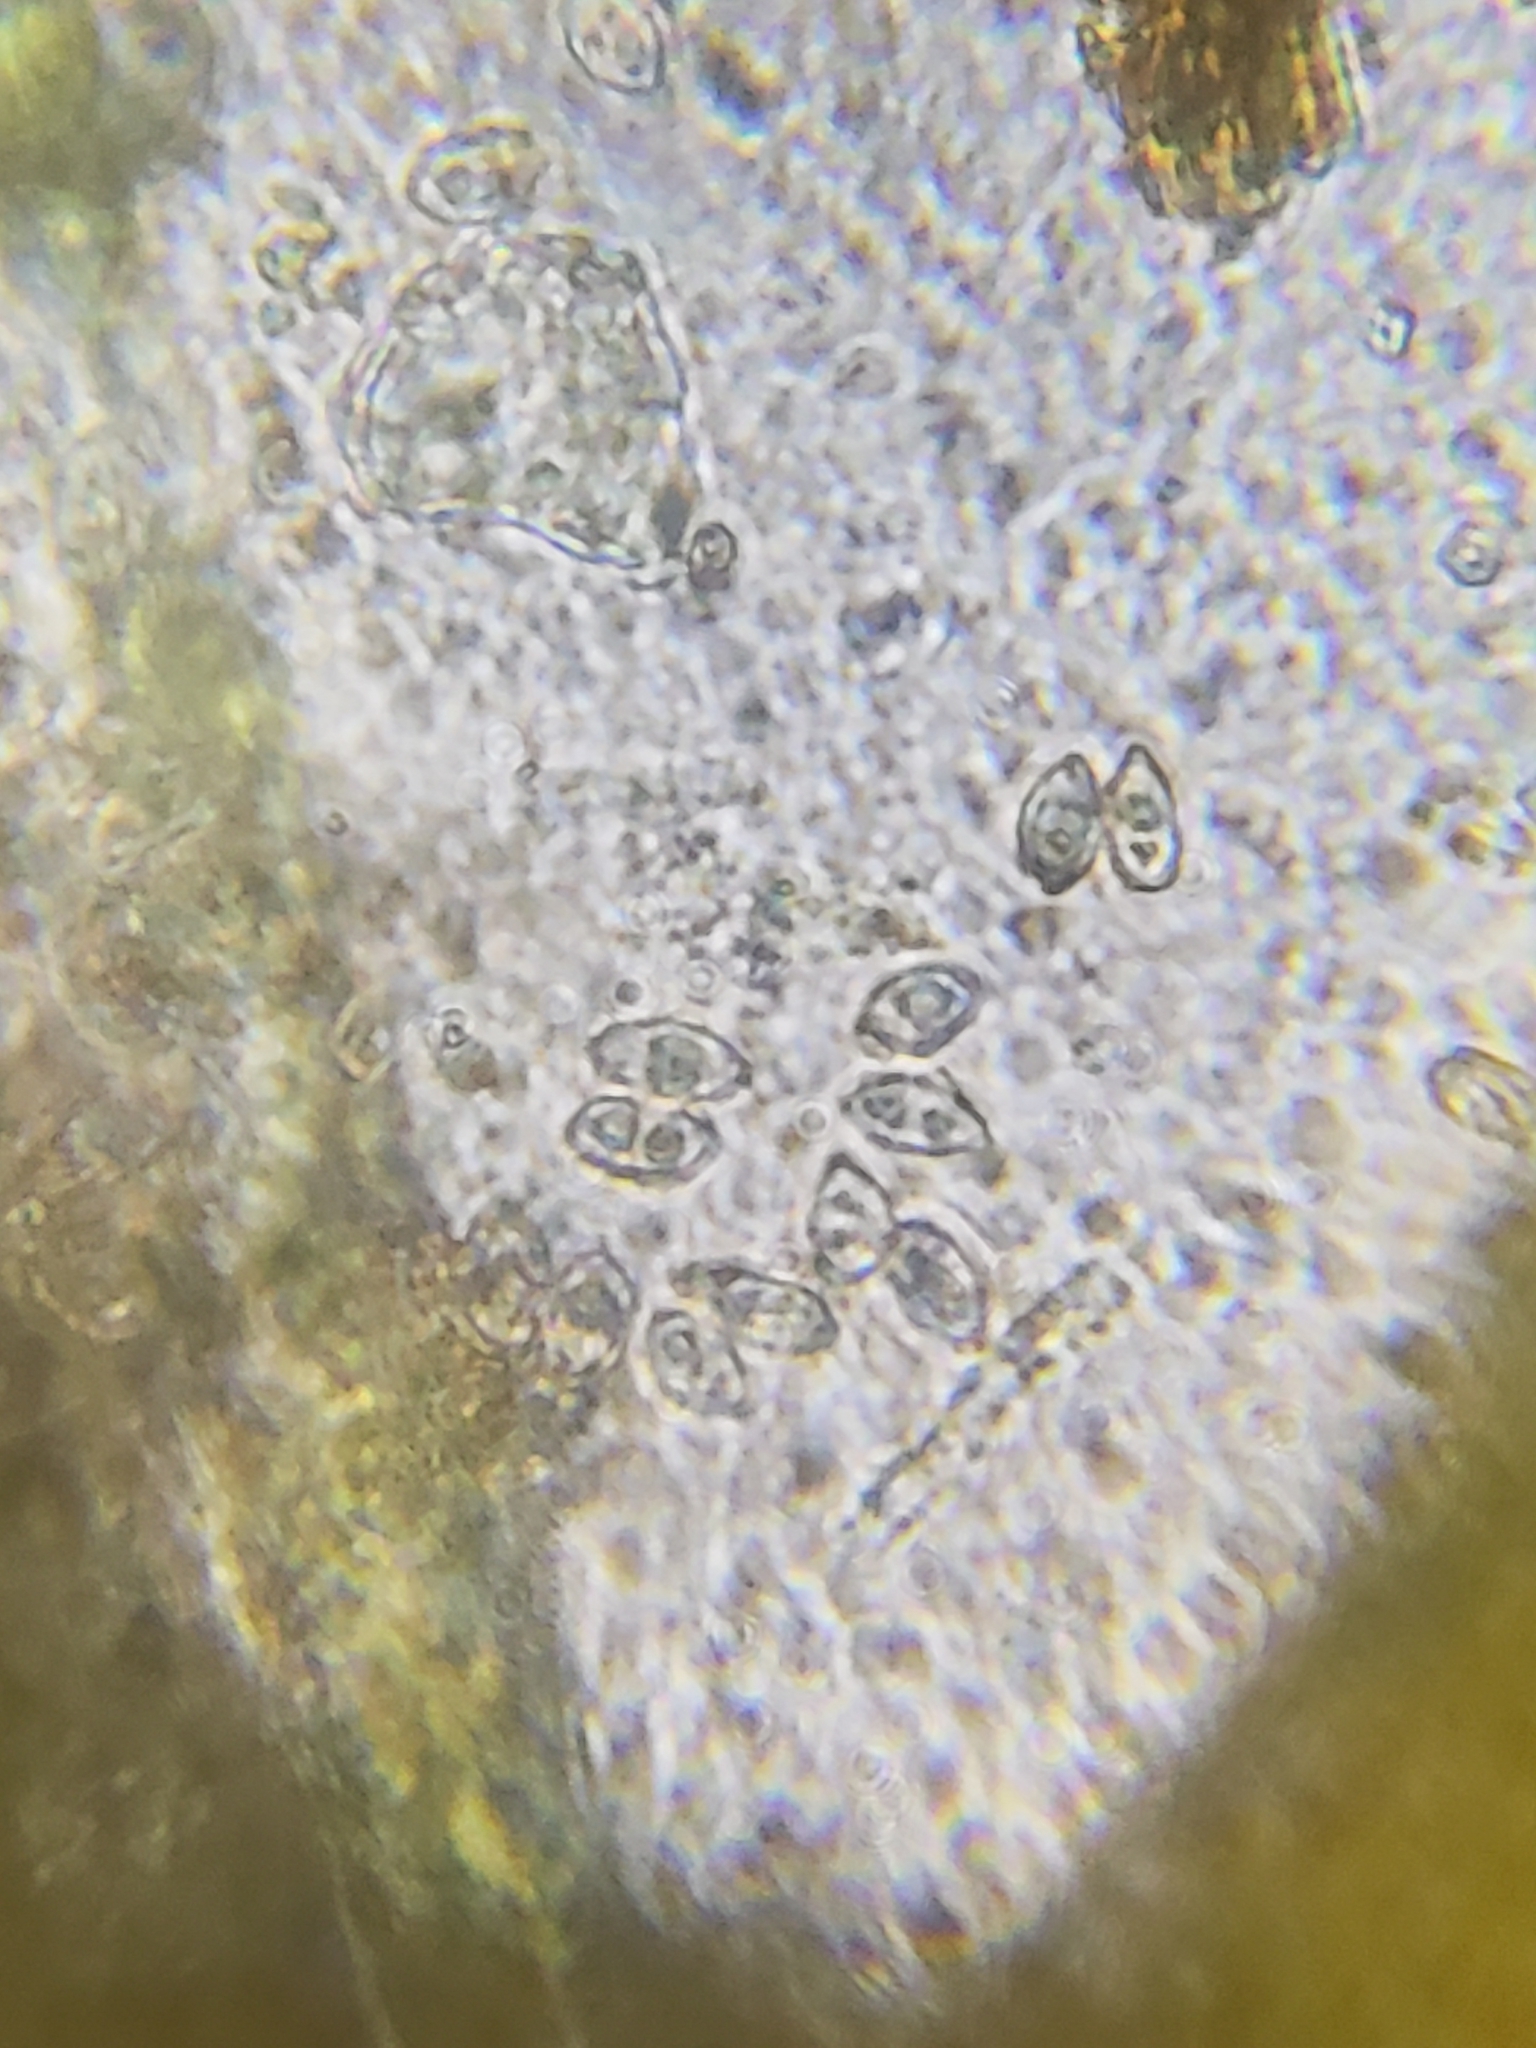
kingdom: Fungi
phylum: Ascomycota
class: Sordariomycetes
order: Hypocreales
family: Hypocreaceae
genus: Sphaerostilbella
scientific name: Sphaerostilbella aurifila
